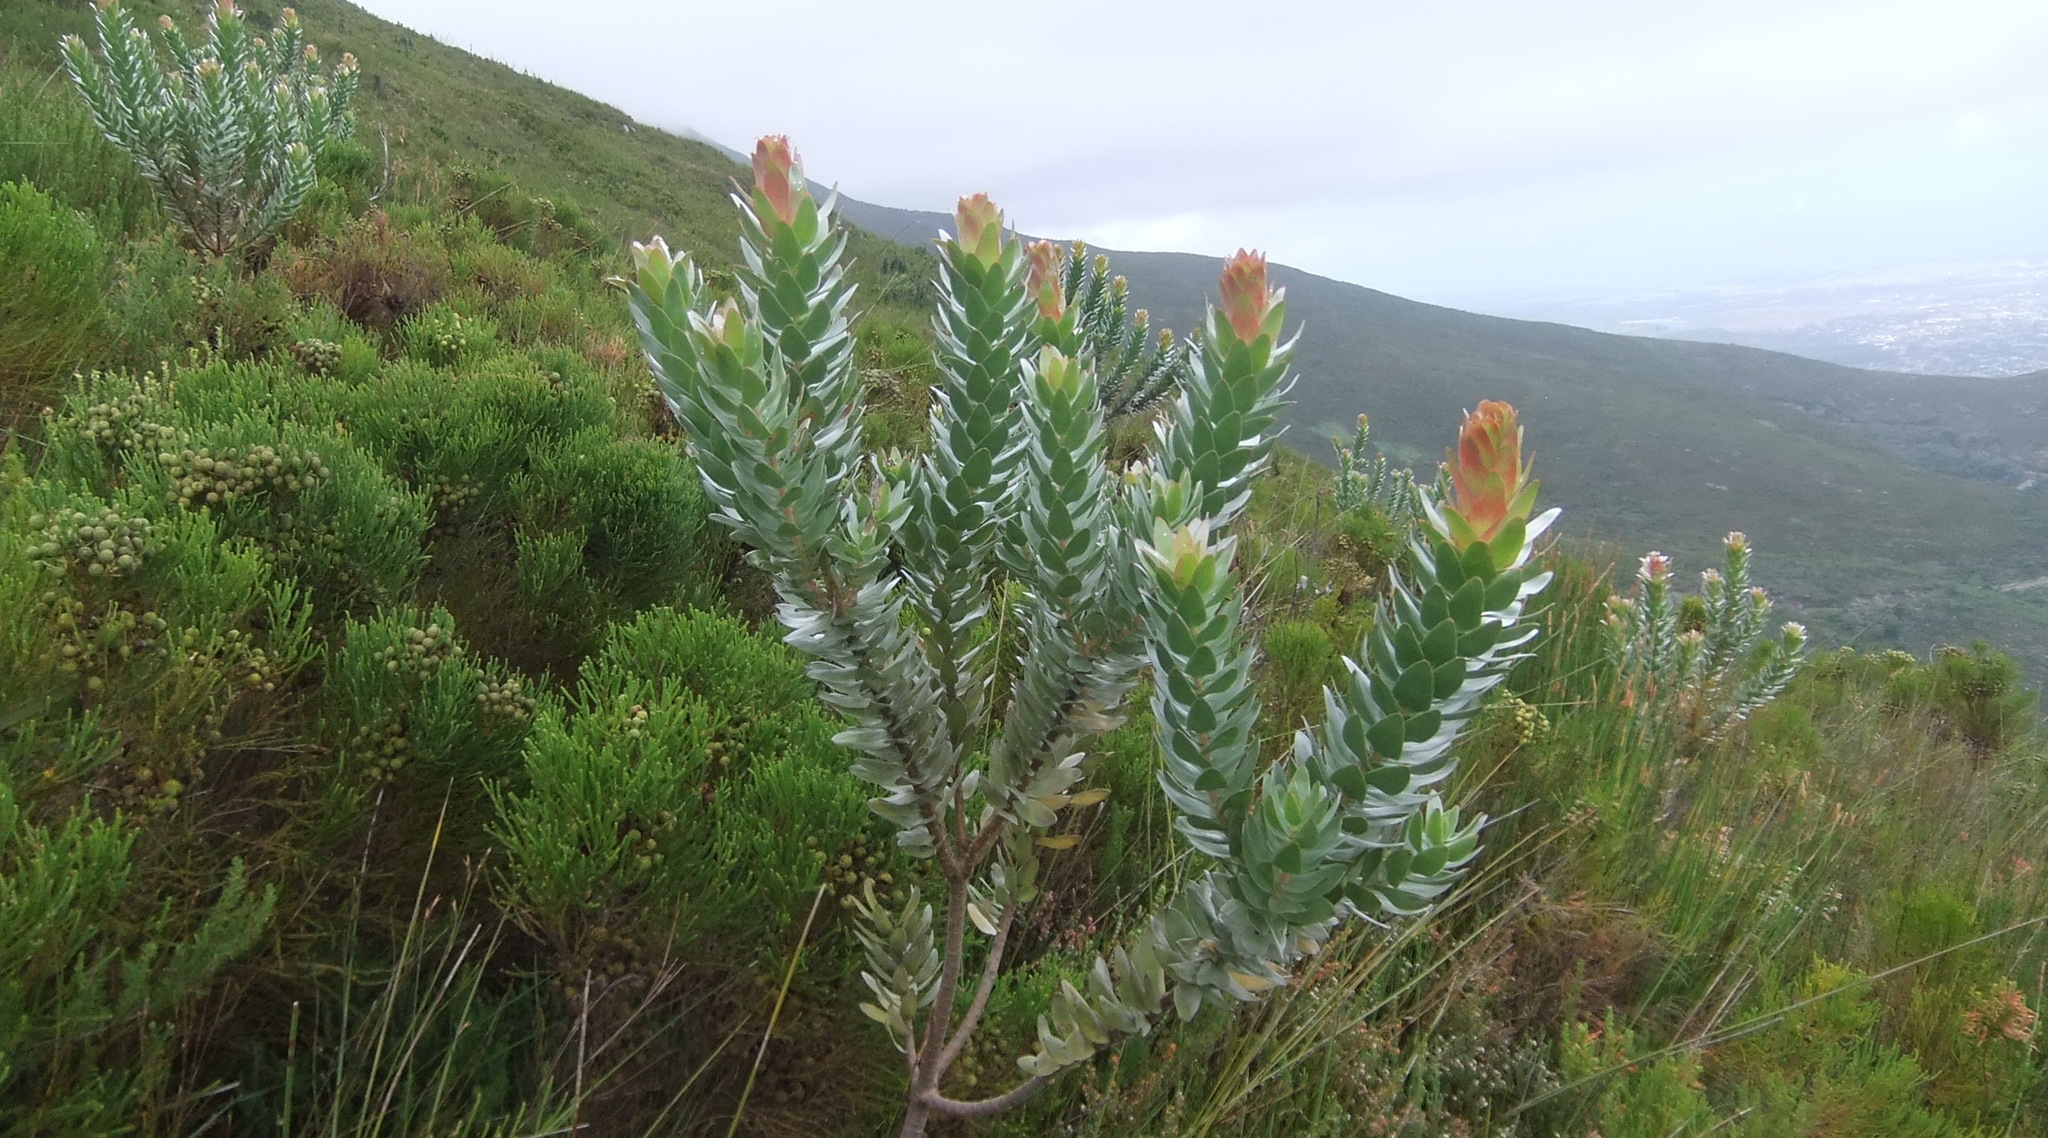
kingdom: Plantae
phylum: Tracheophyta
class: Magnoliopsida
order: Proteales
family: Proteaceae
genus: Mimetes
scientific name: Mimetes splendidus
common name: Splendid pagoda
